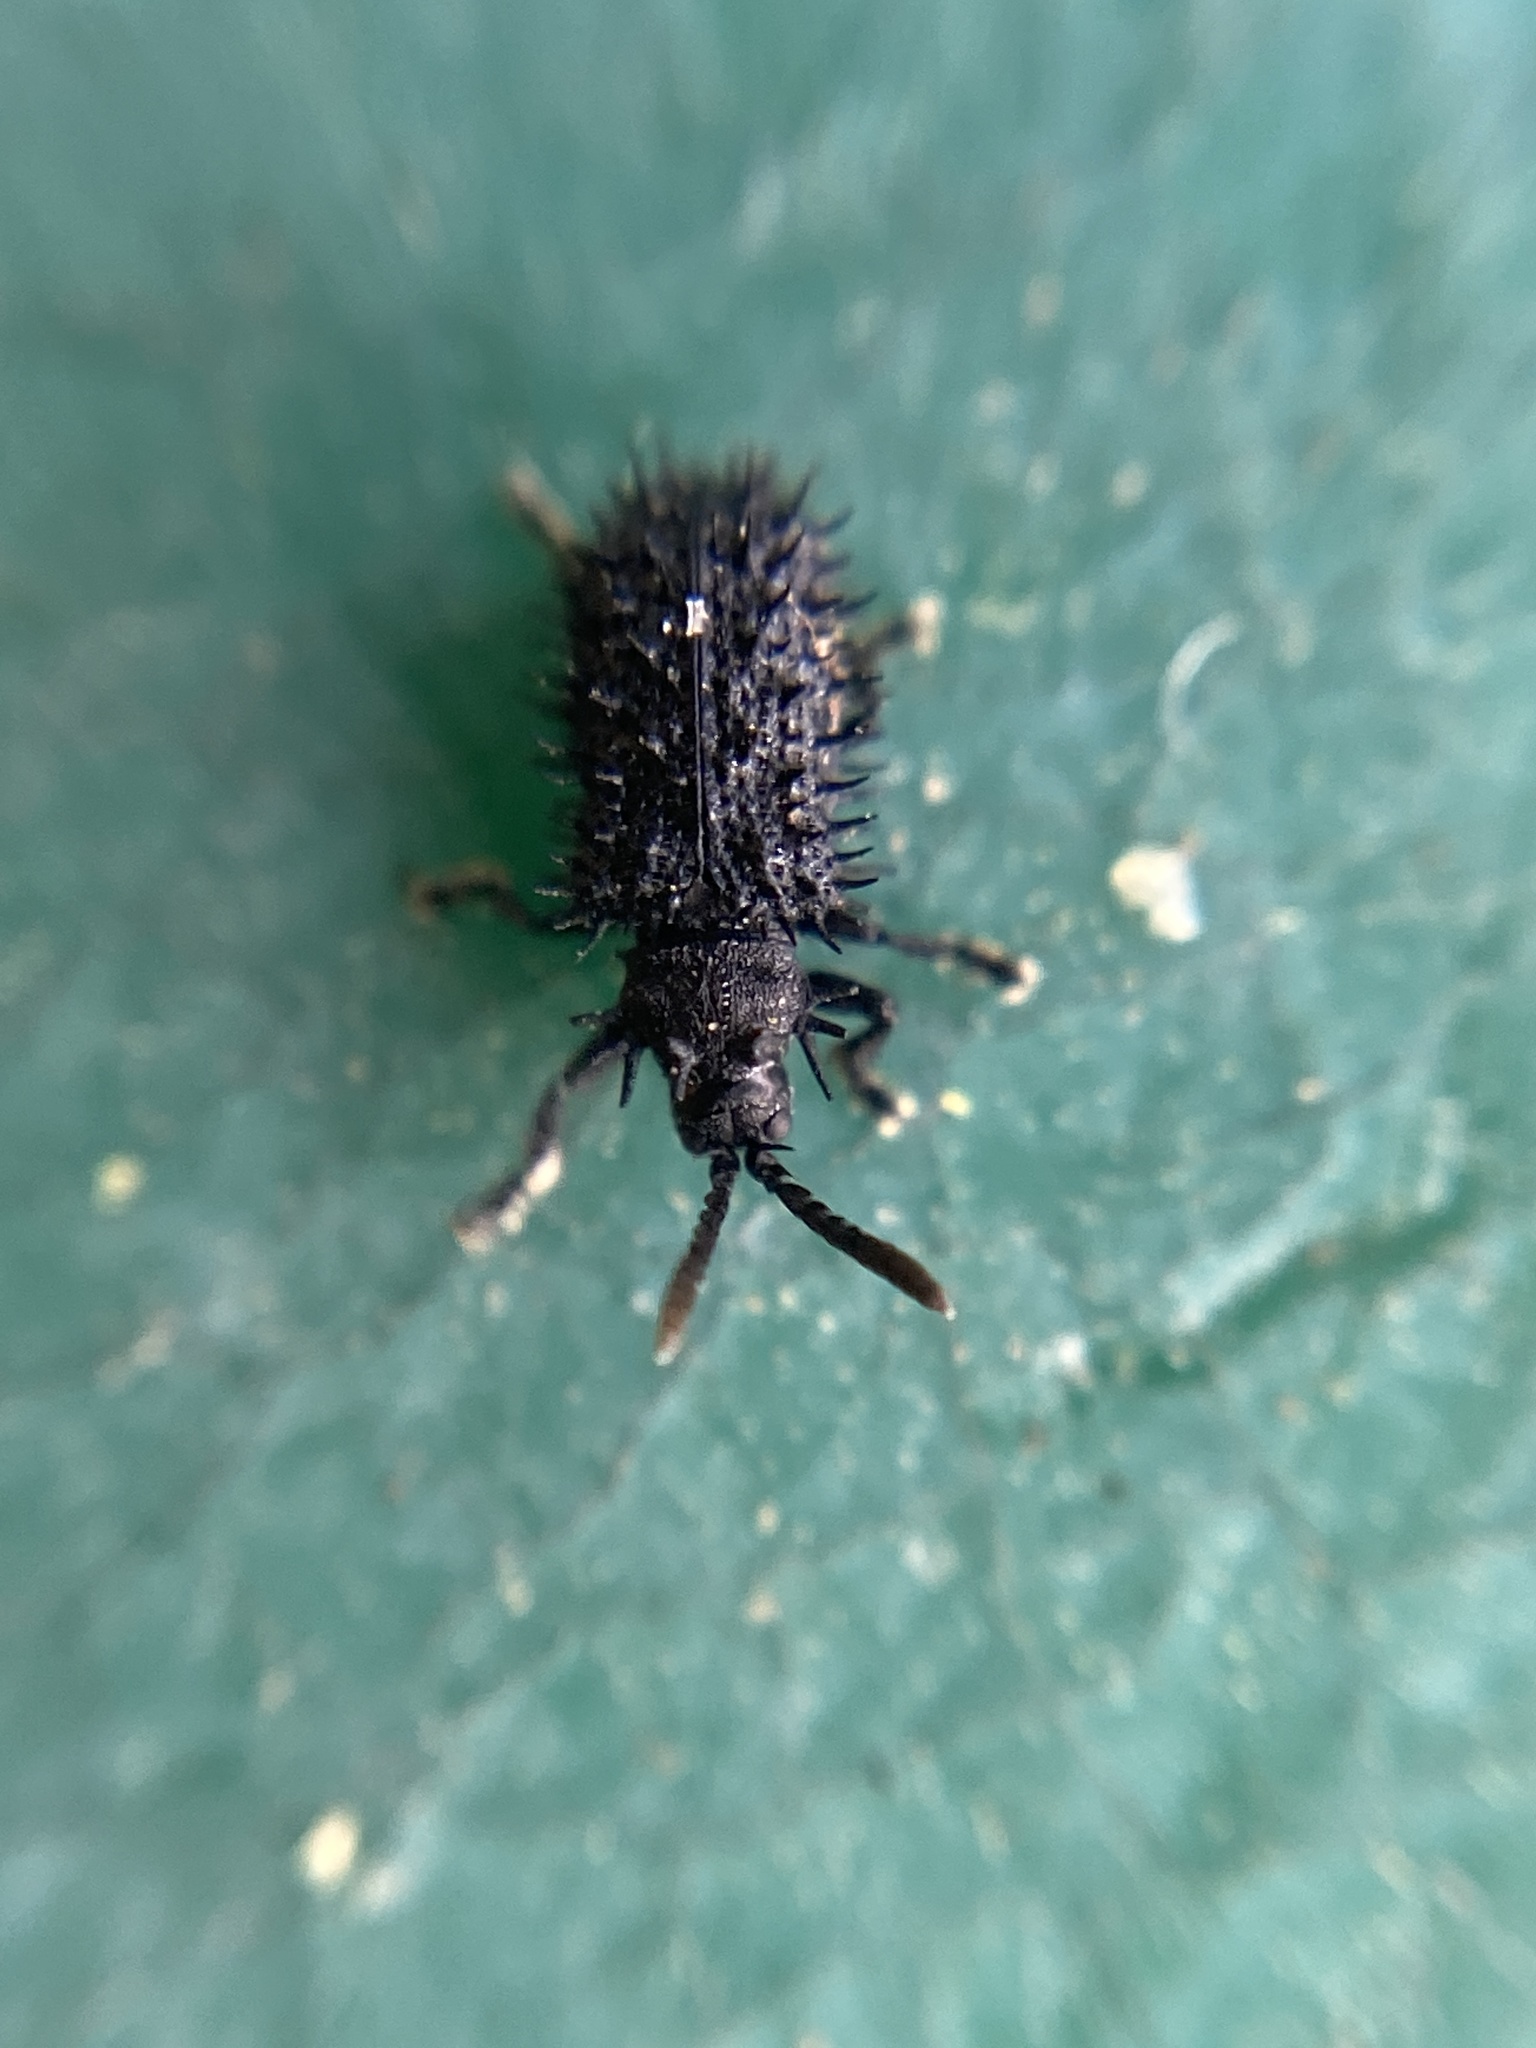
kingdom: Animalia
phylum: Arthropoda
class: Insecta
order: Coleoptera
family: Chrysomelidae
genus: Hispa
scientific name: Hispa atra
